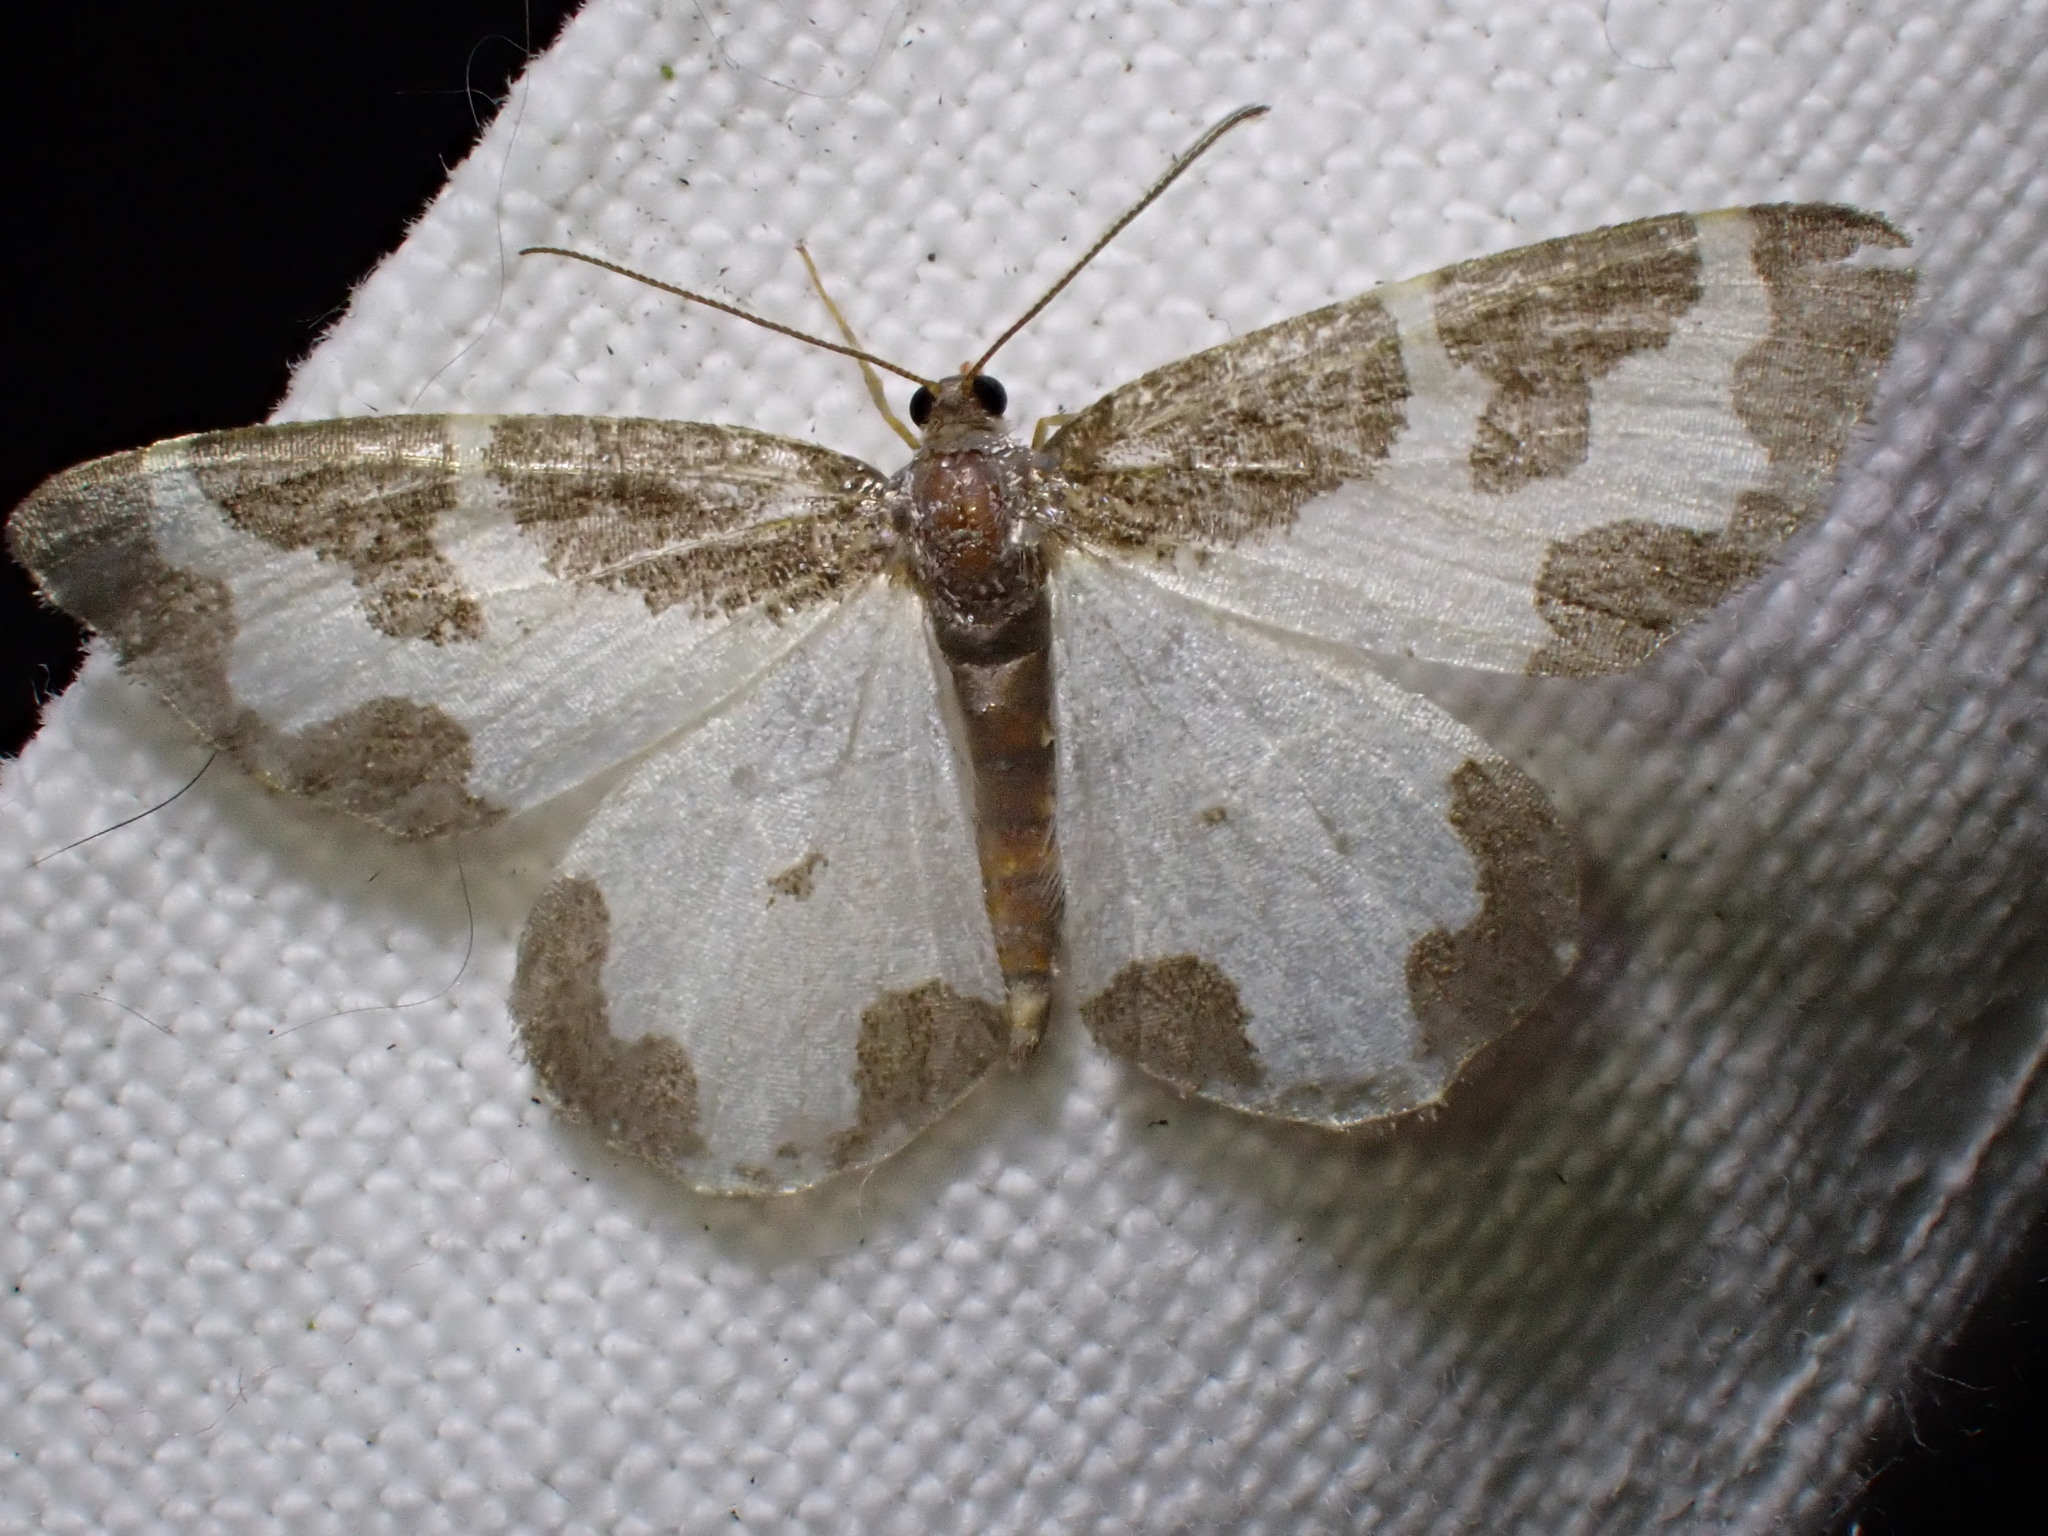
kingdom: Animalia
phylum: Arthropoda
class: Insecta
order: Lepidoptera
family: Geometridae
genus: Lomaspilis
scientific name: Lomaspilis marginata
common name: Clouded border
